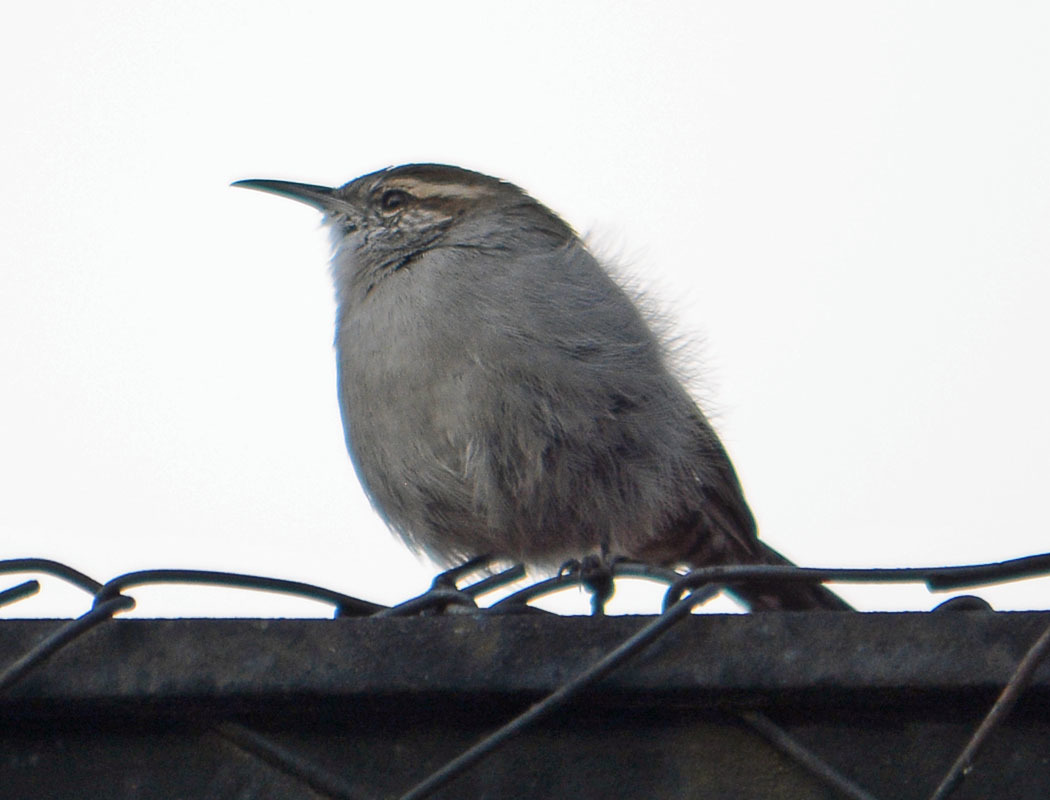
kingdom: Animalia
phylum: Chordata
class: Aves
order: Passeriformes
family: Troglodytidae
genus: Thryomanes
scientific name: Thryomanes bewickii
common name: Bewick's wren
